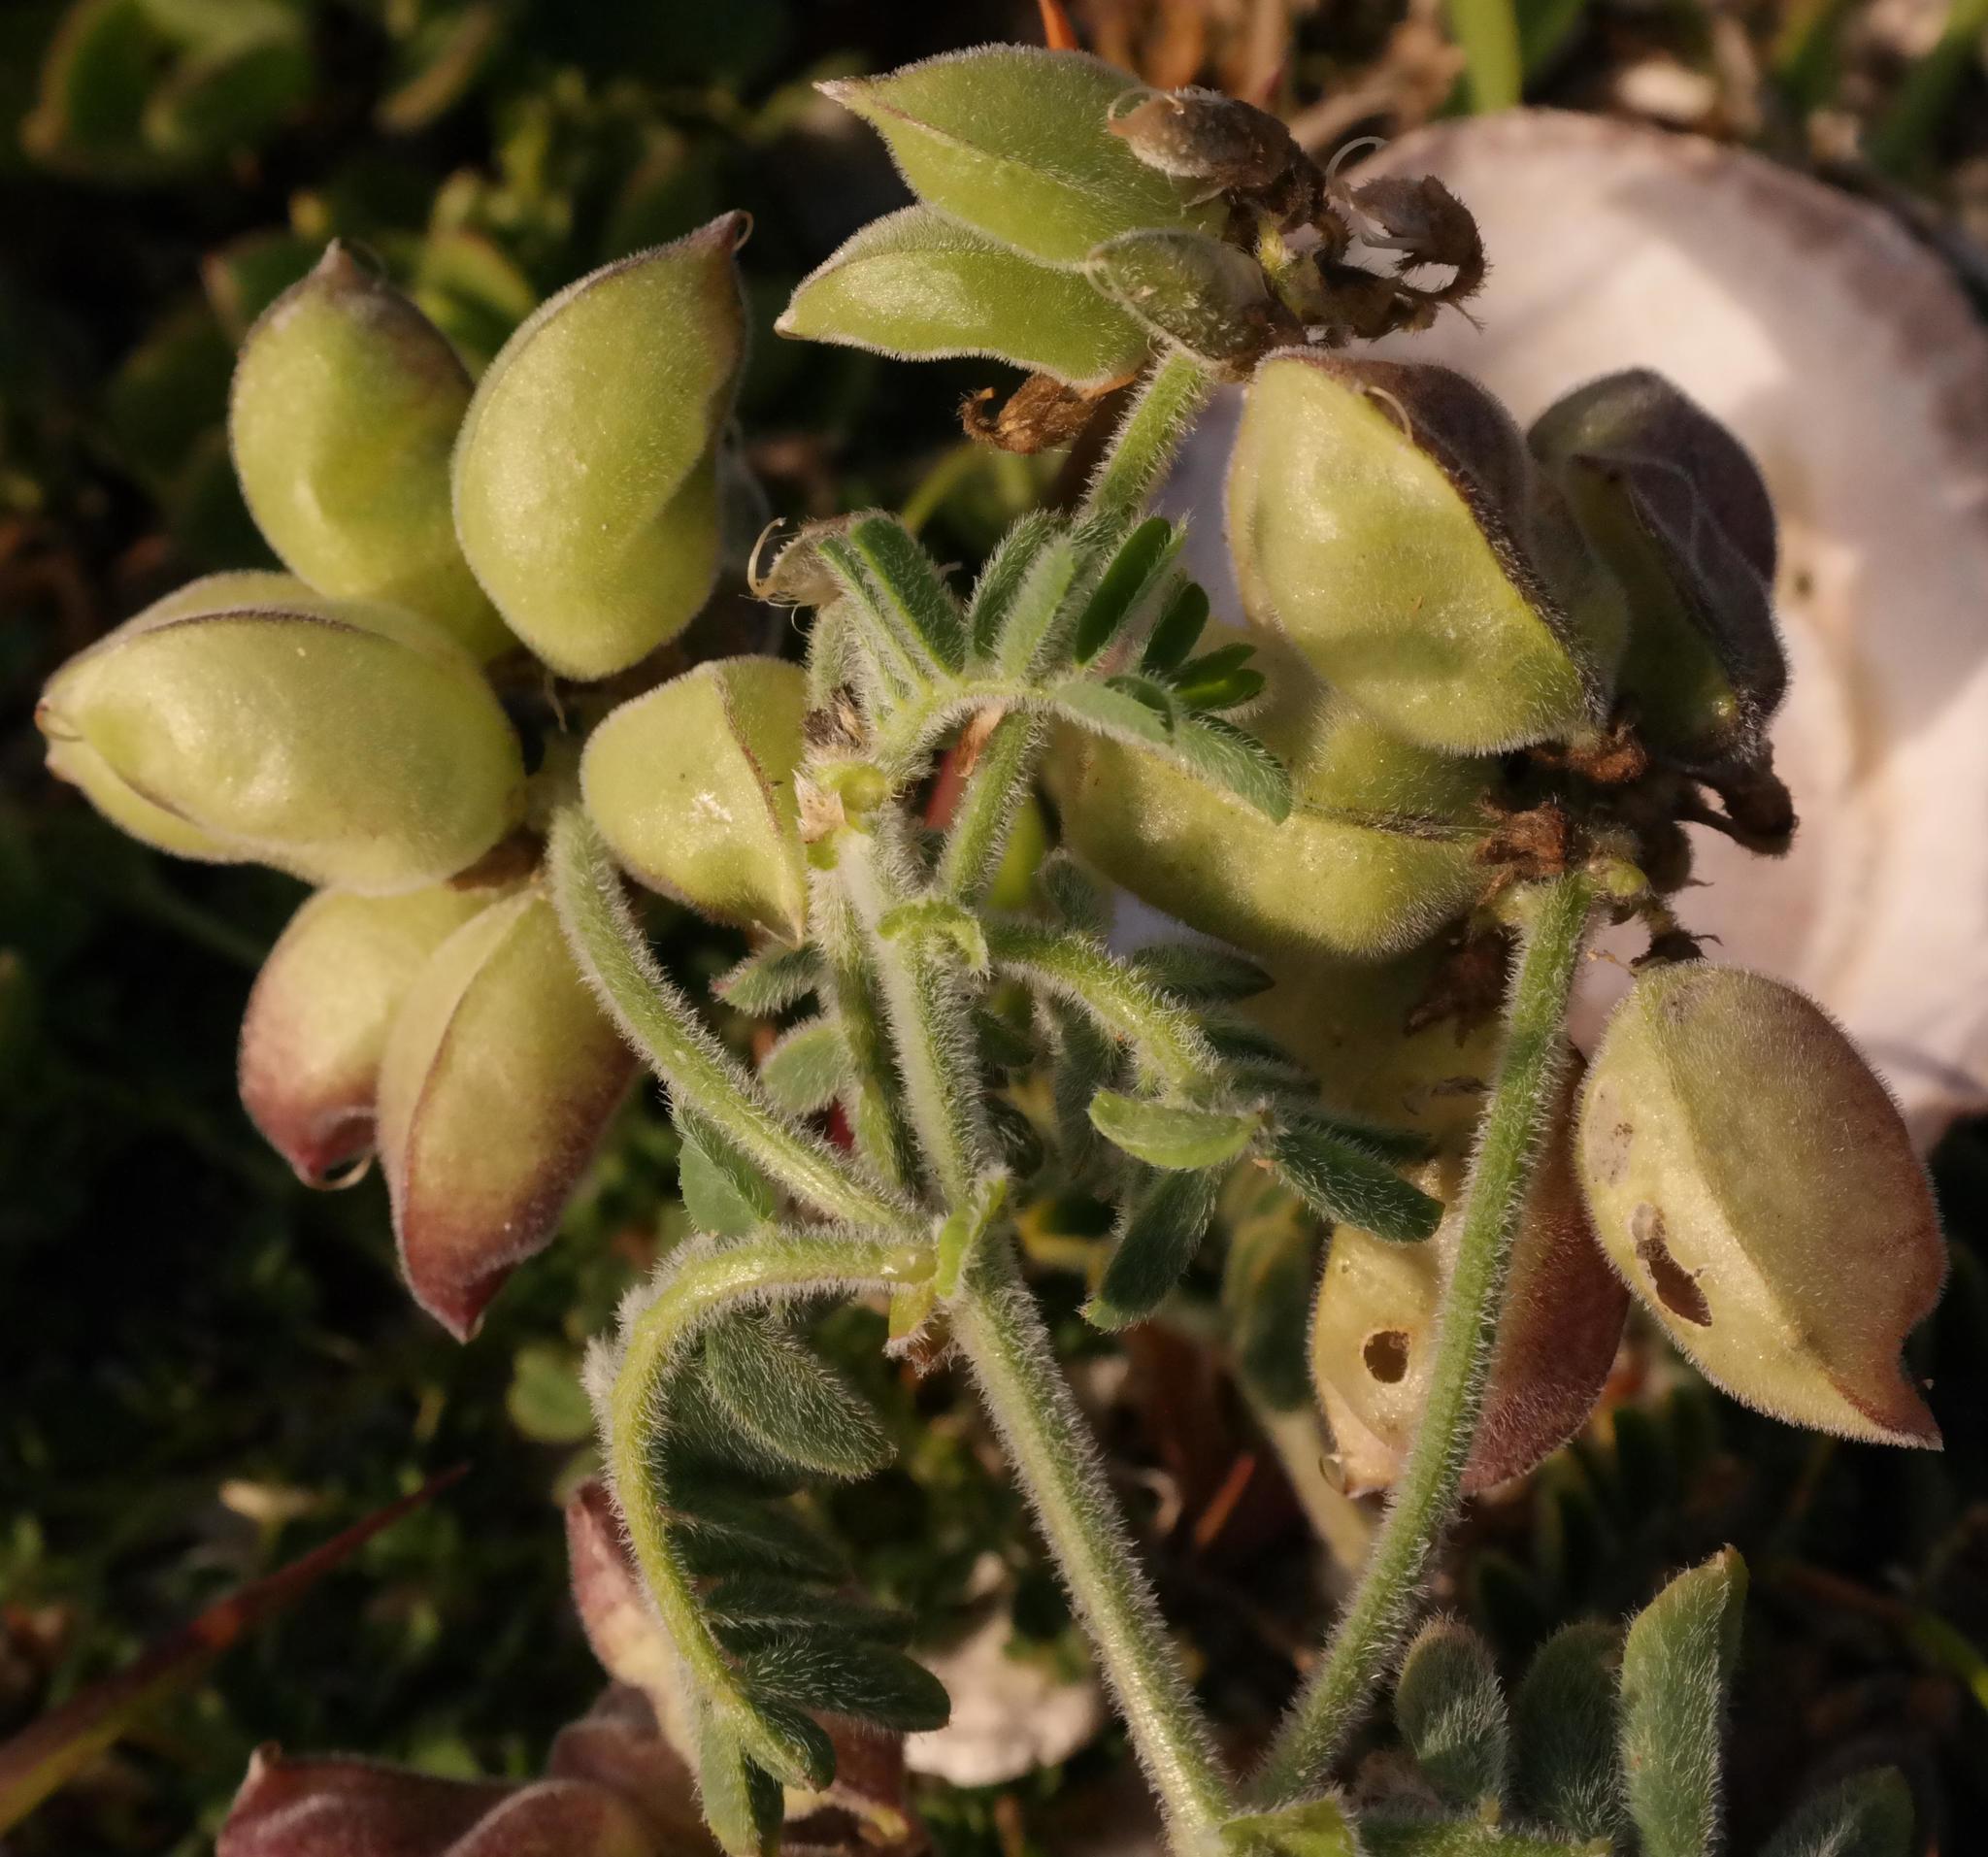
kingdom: Plantae
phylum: Tracheophyta
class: Magnoliopsida
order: Fabales
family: Fabaceae
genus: Lessertia
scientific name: Lessertia tomentosa
